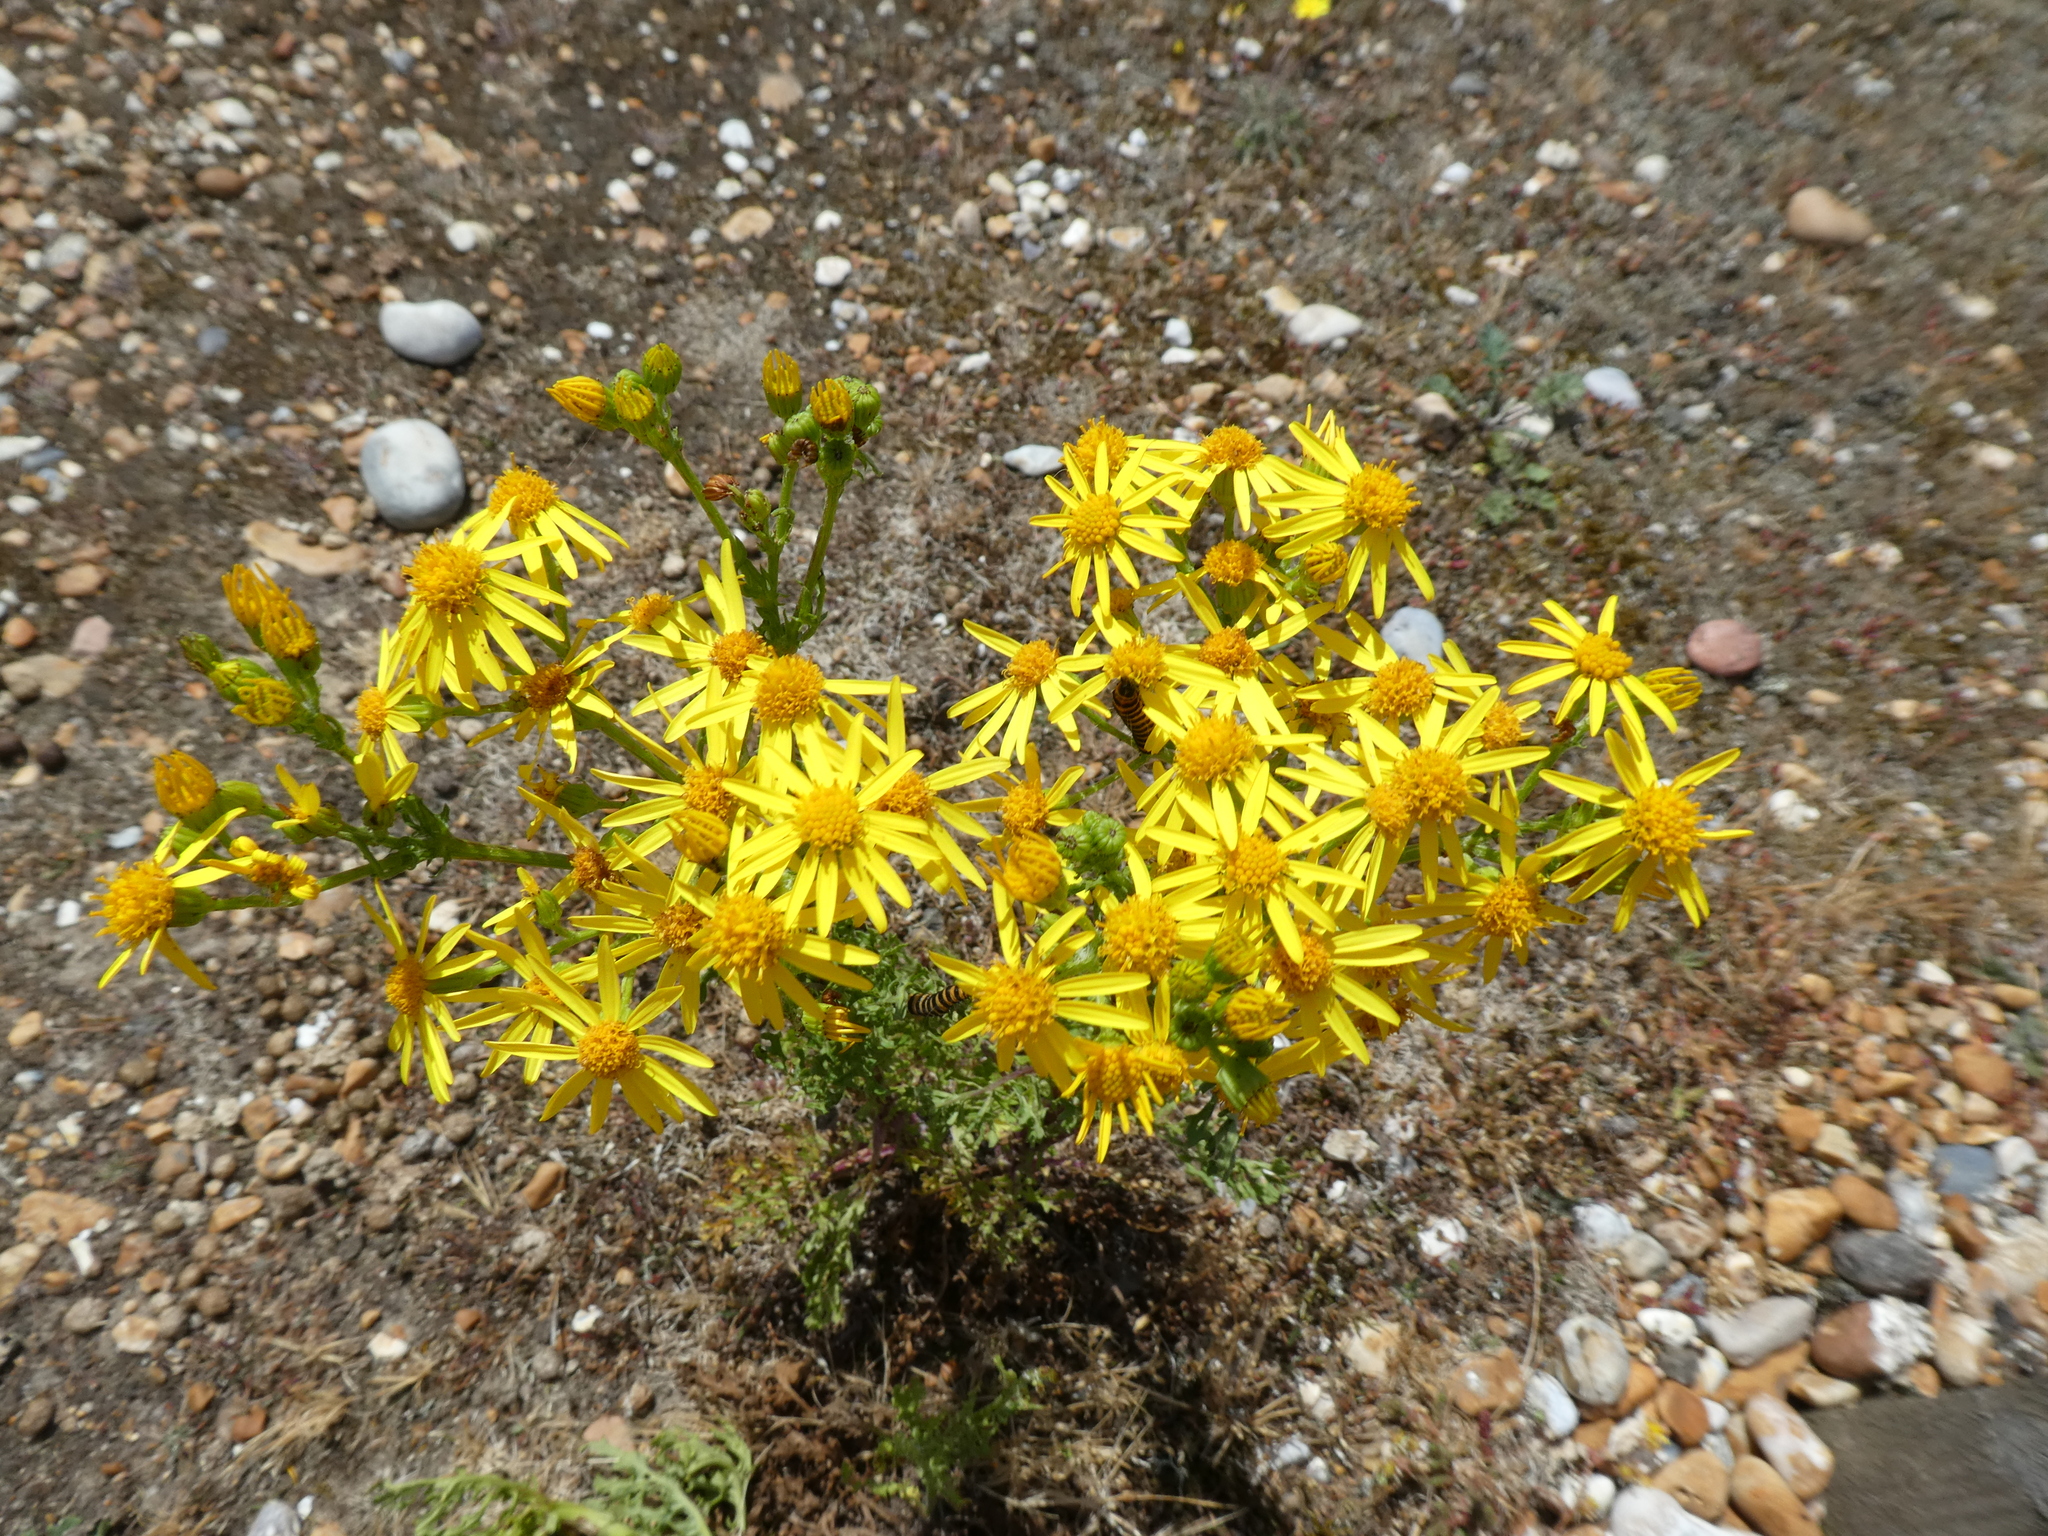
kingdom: Plantae
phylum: Tracheophyta
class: Magnoliopsida
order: Asterales
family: Asteraceae
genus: Jacobaea
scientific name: Jacobaea vulgaris
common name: Stinking willie
